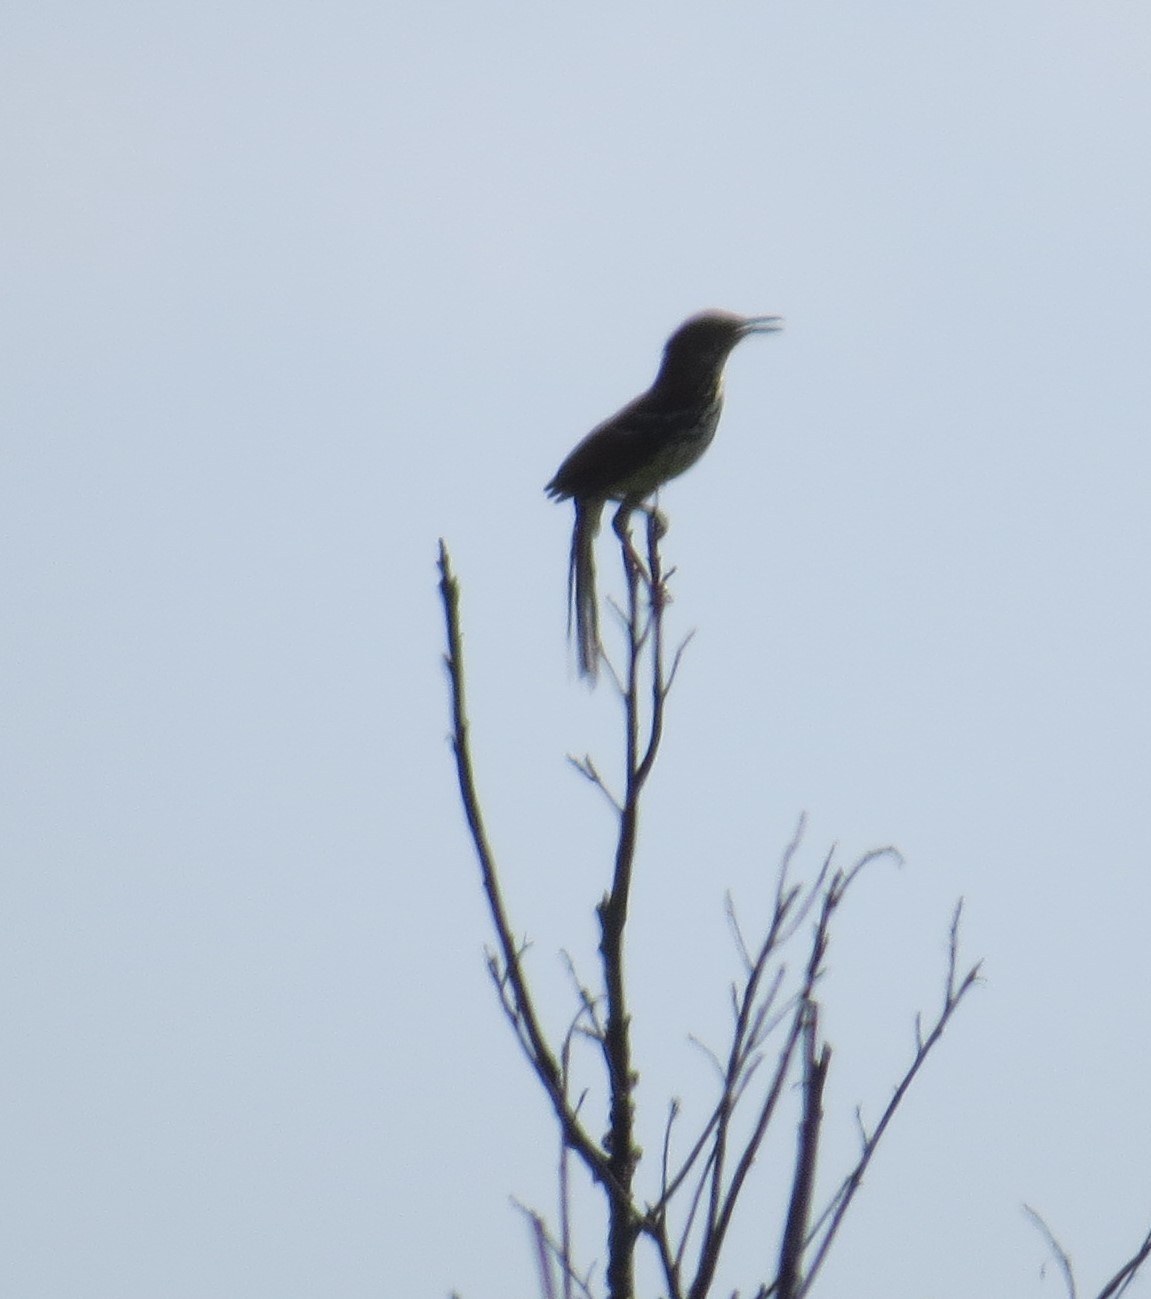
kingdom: Animalia
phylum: Chordata
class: Aves
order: Passeriformes
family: Mimidae
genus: Toxostoma
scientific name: Toxostoma rufum
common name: Brown thrasher
